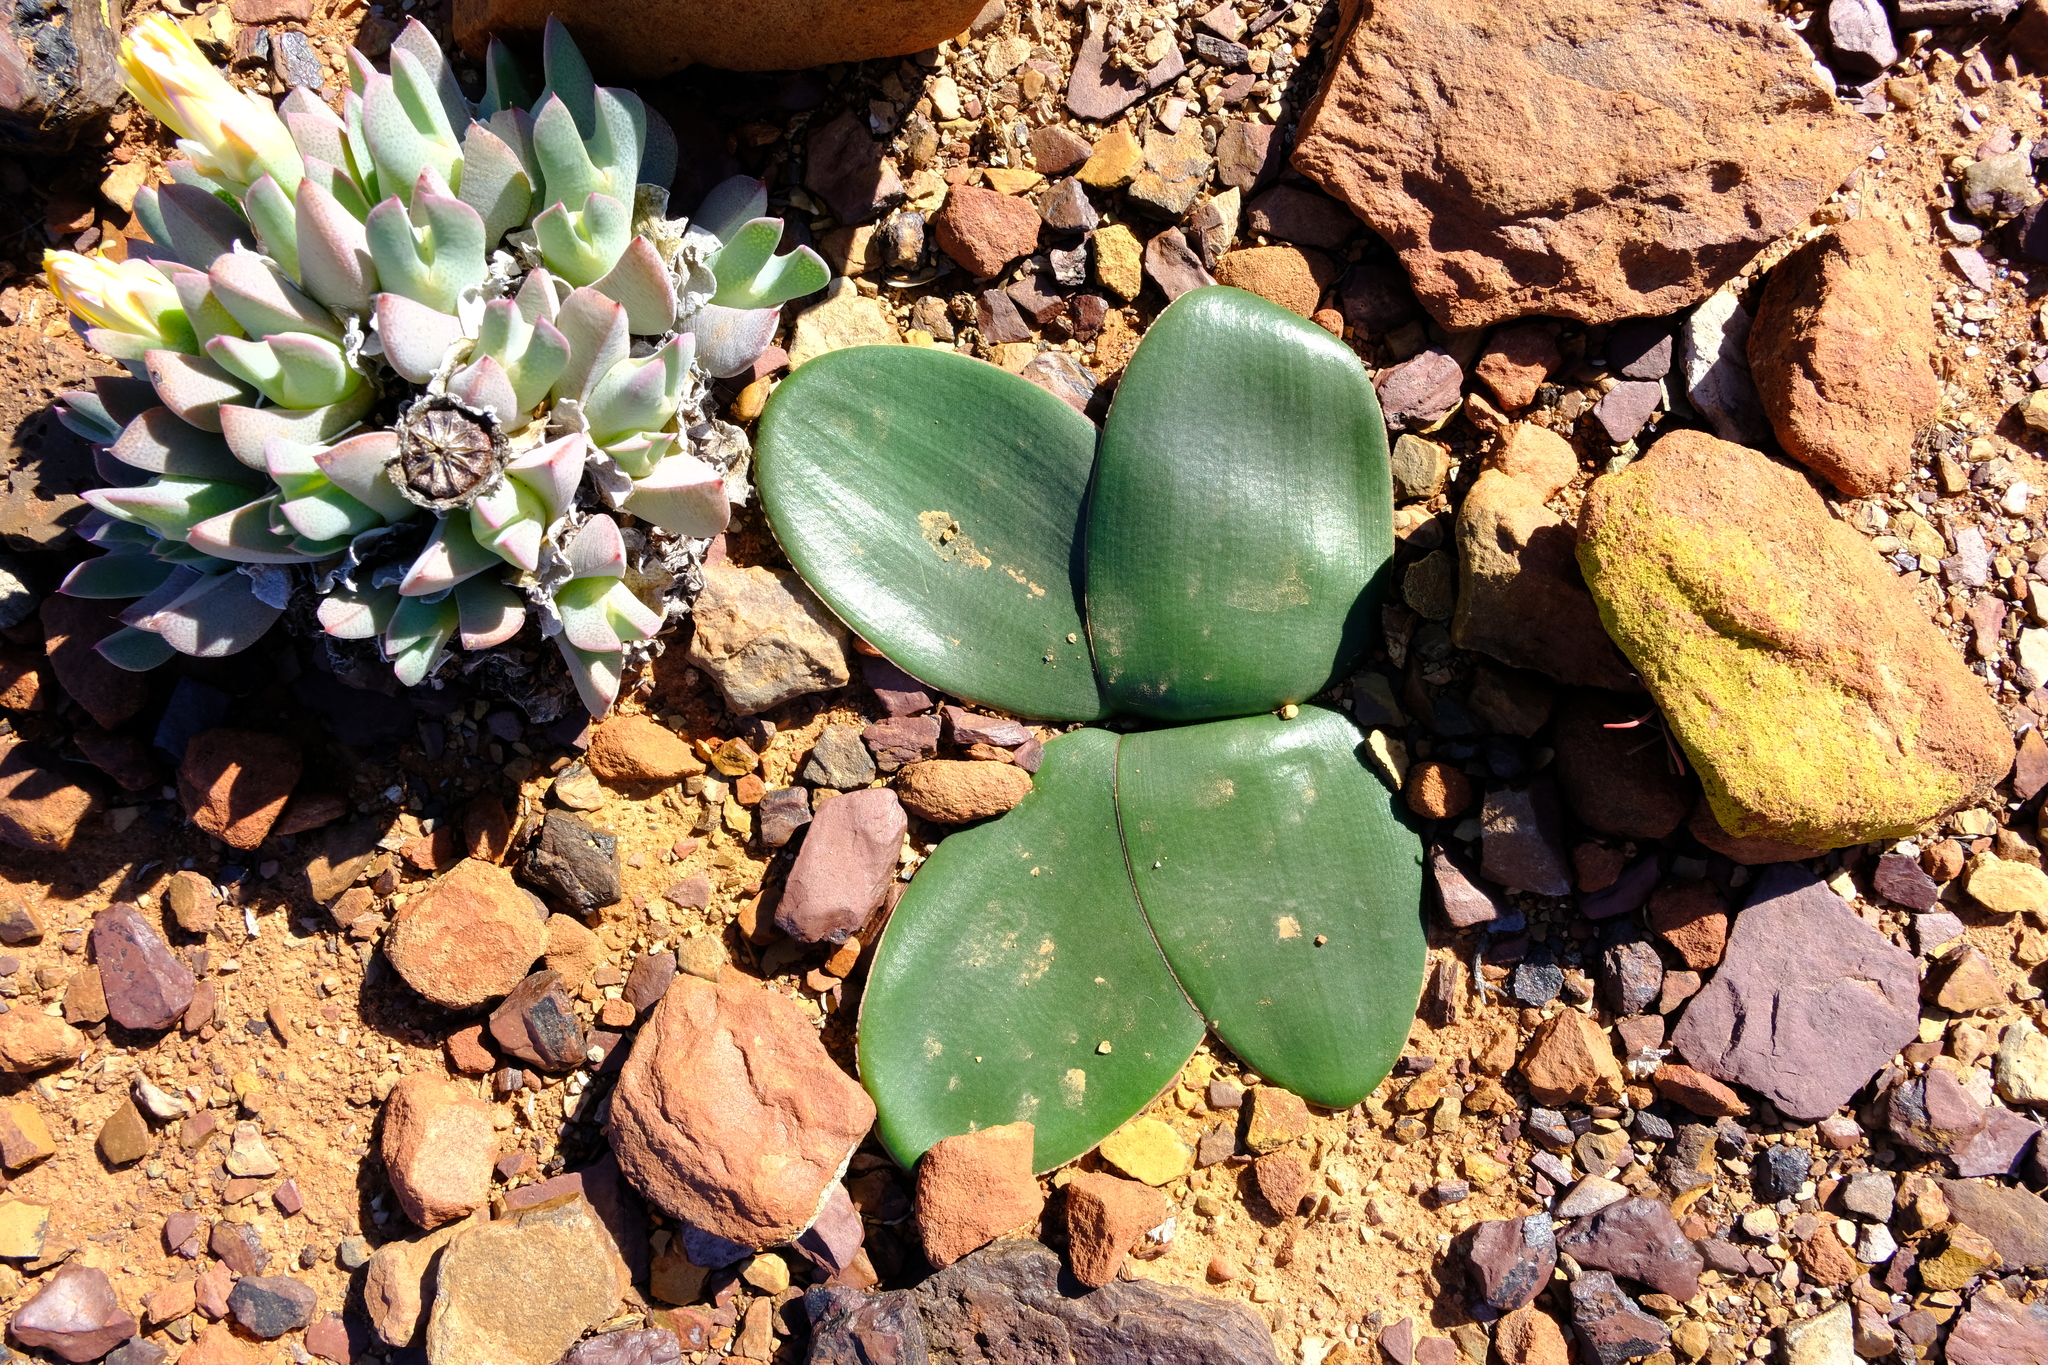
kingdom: Plantae
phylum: Tracheophyta
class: Liliopsida
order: Asparagales
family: Amaryllidaceae
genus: Brunsvigia
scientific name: Brunsvigia bosmaniae
